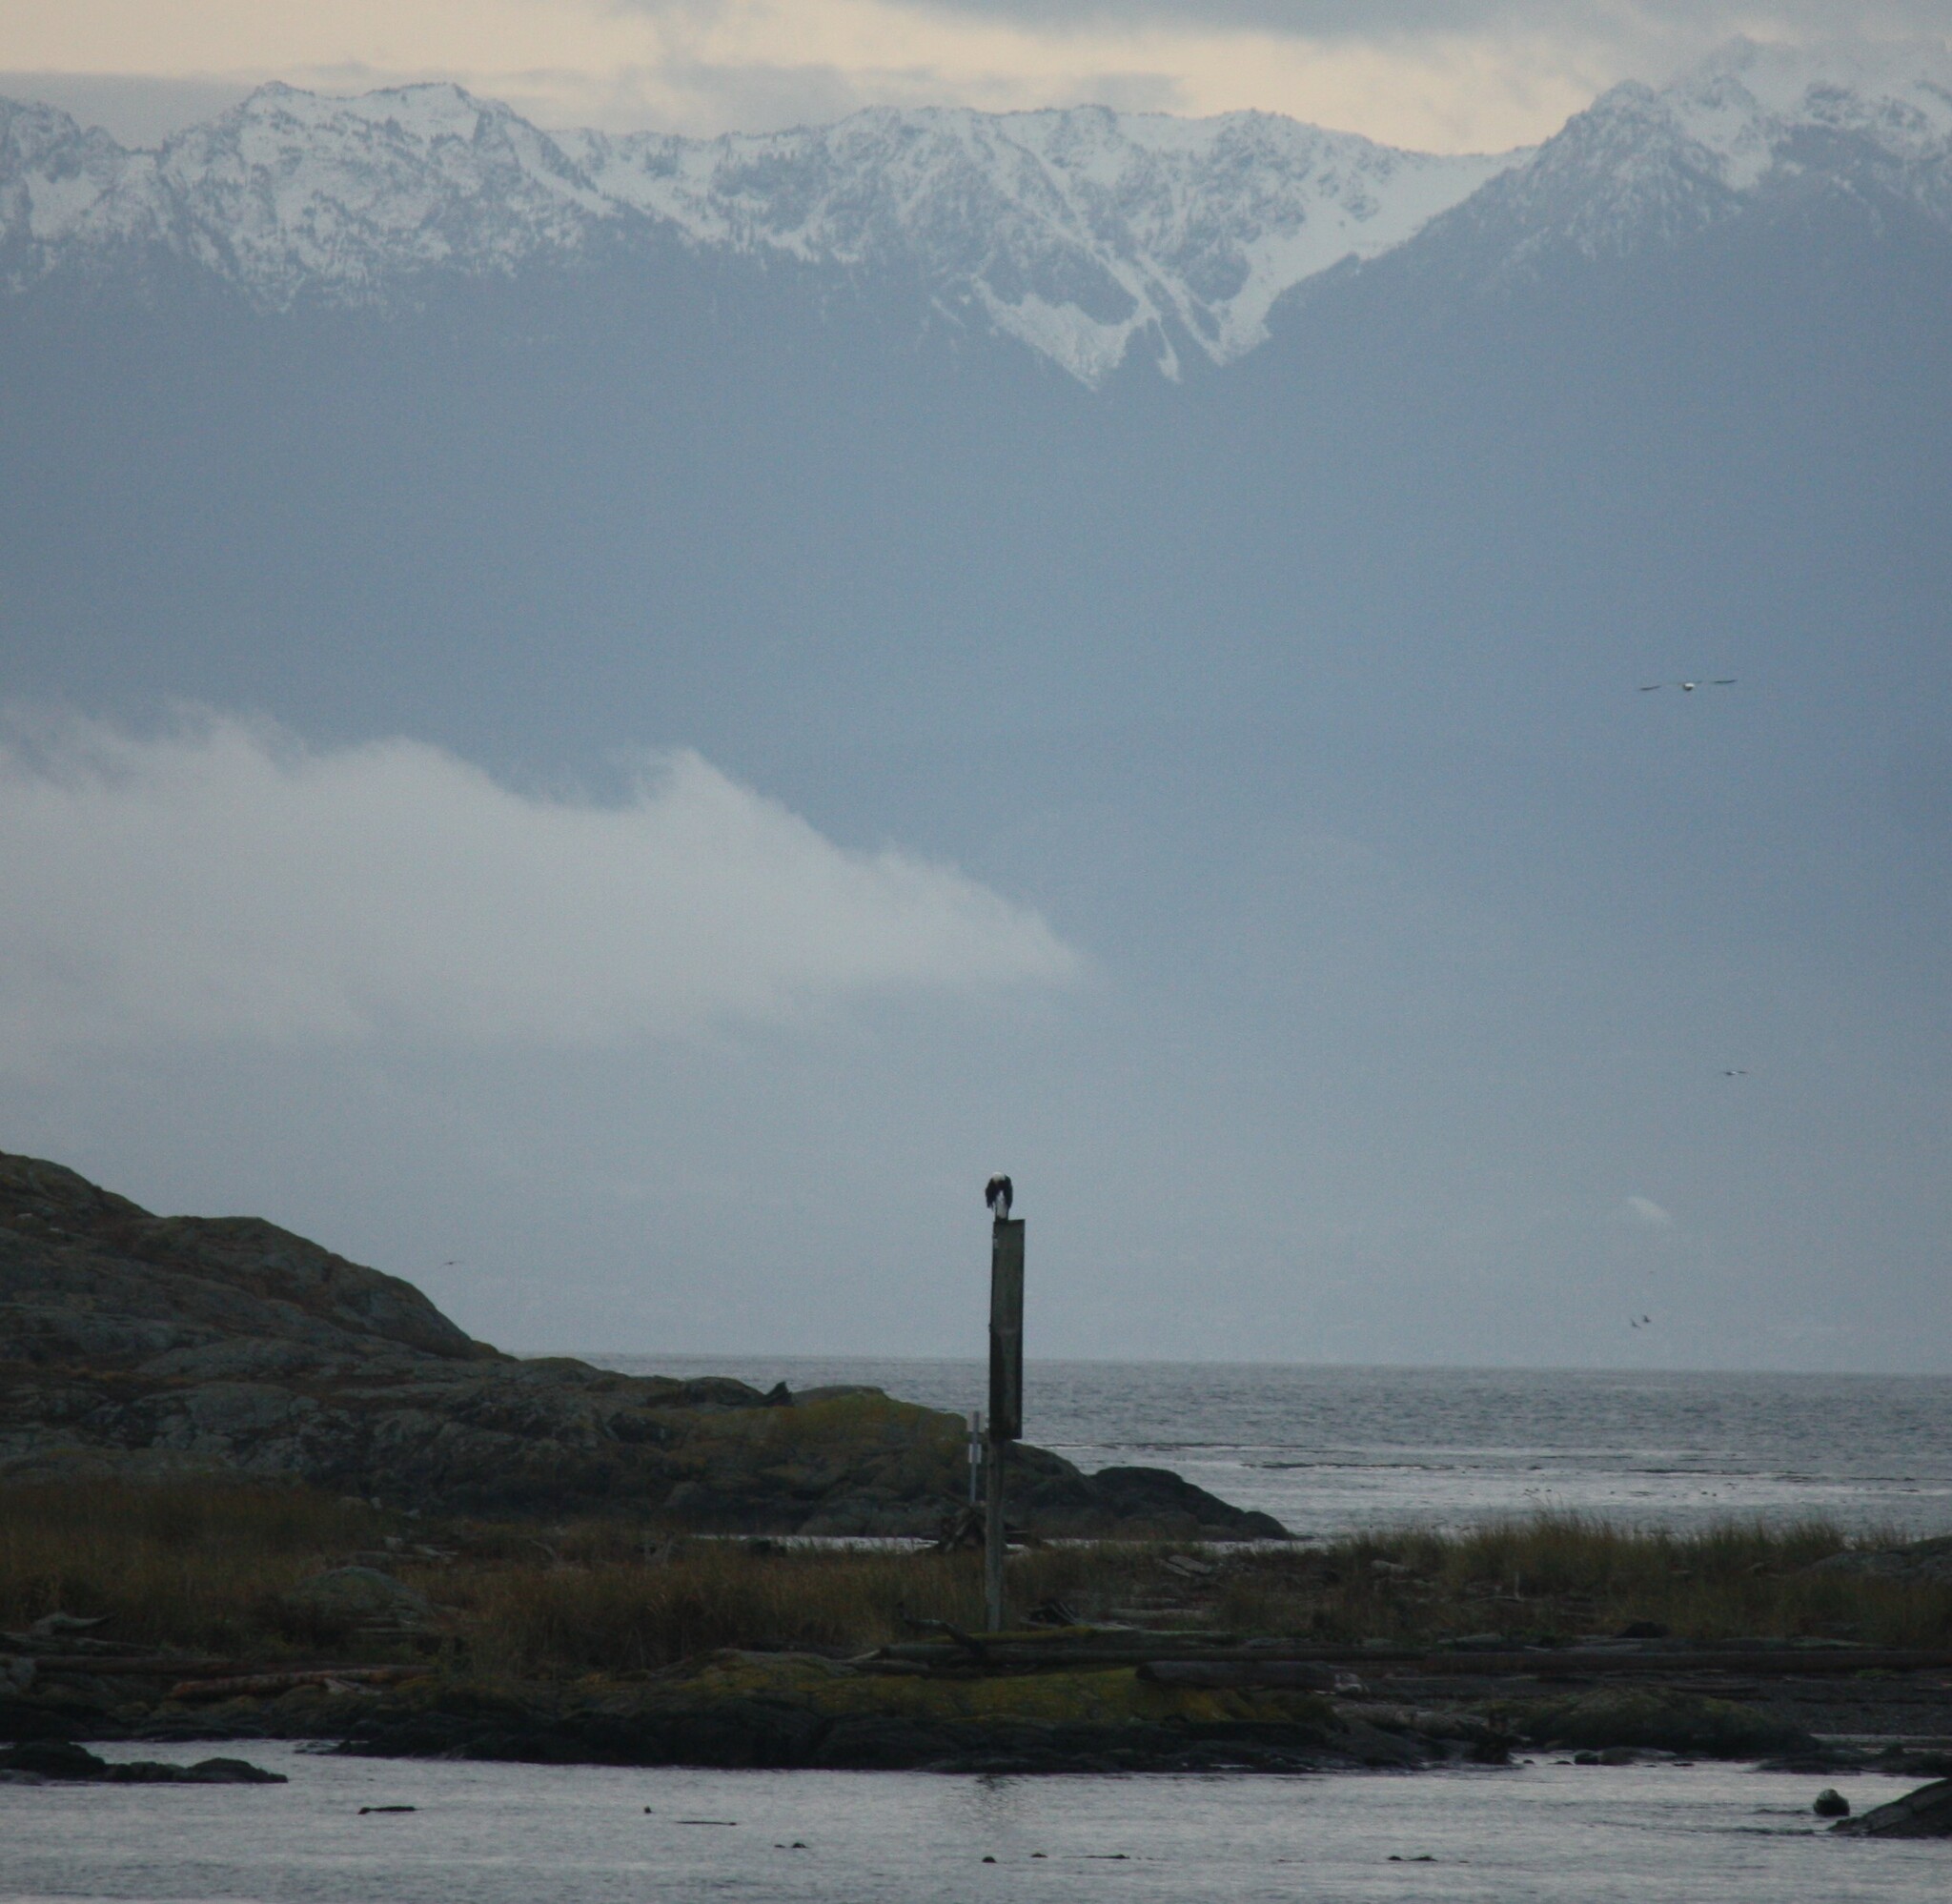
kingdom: Animalia
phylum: Chordata
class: Aves
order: Accipitriformes
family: Accipitridae
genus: Haliaeetus
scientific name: Haliaeetus leucocephalus
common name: Bald eagle
